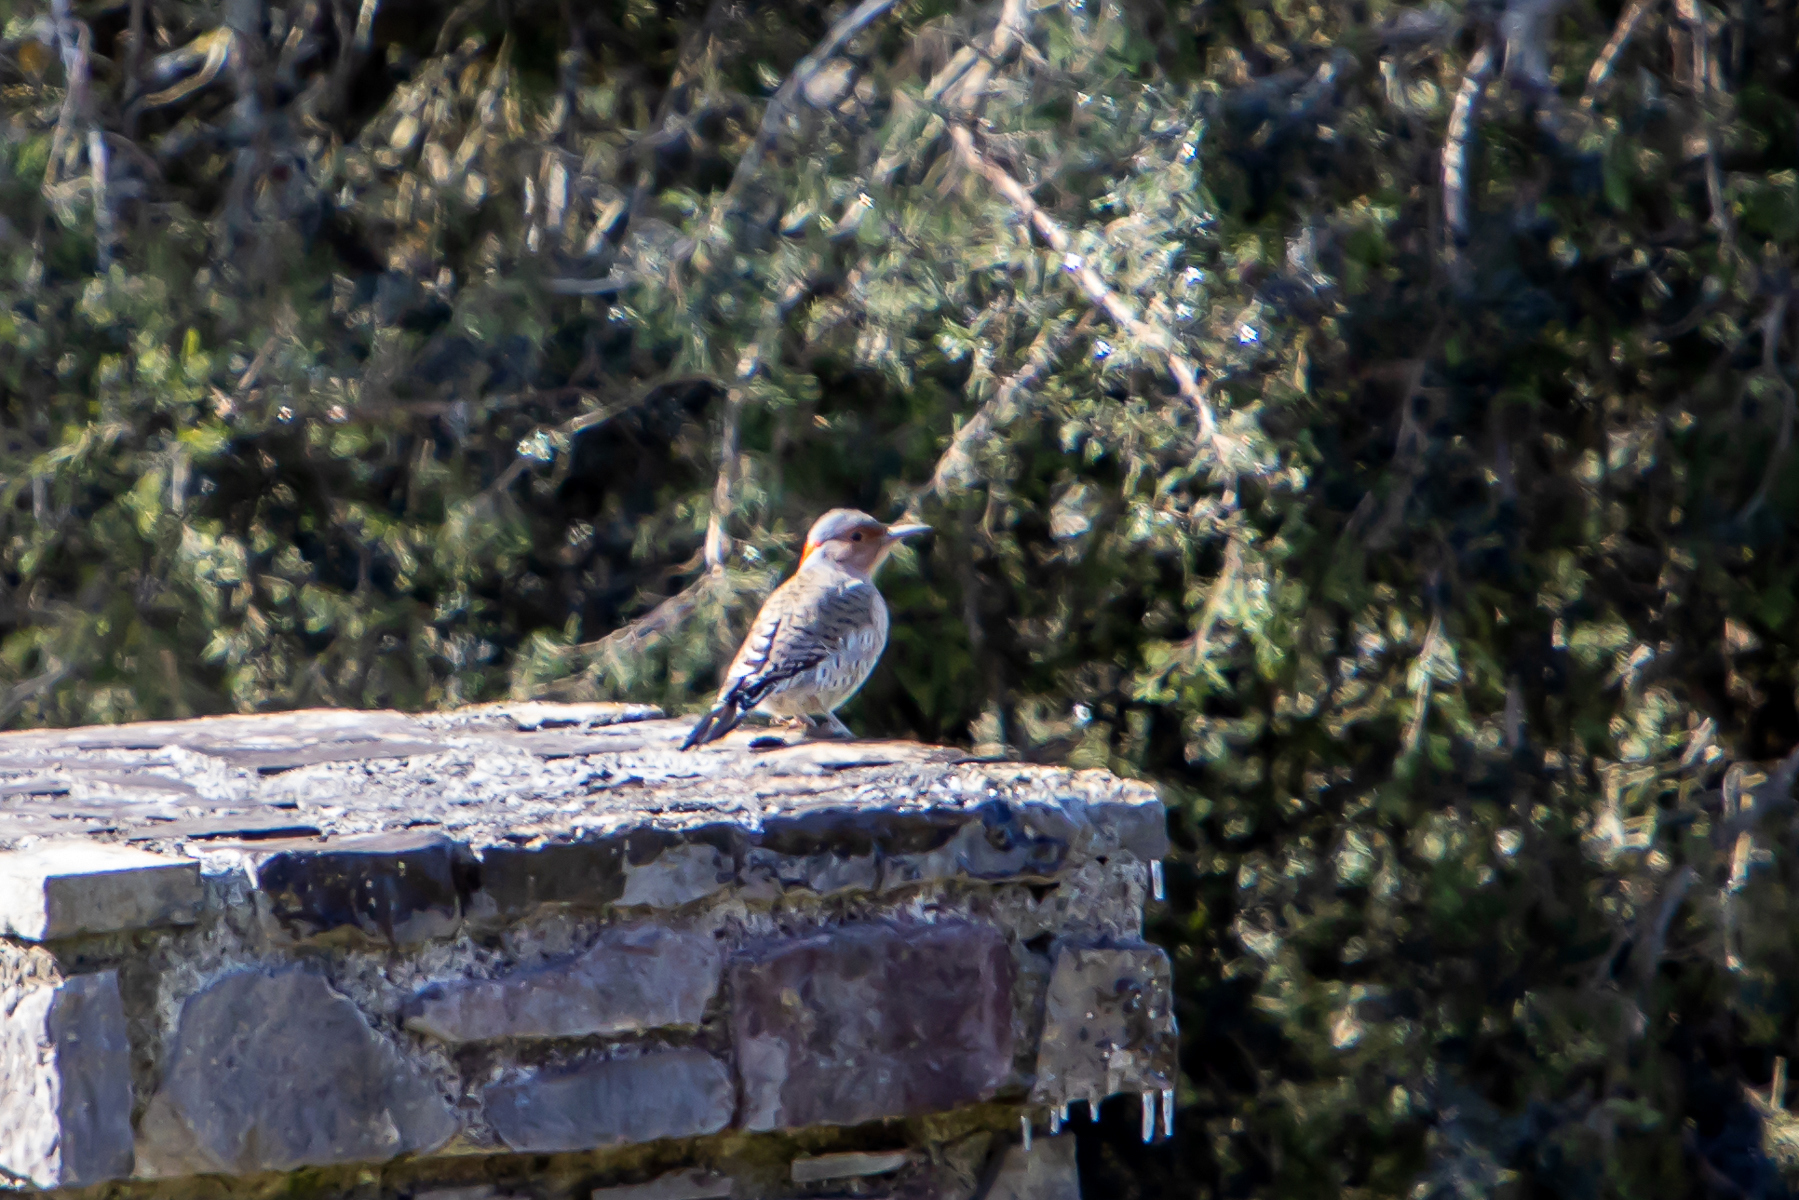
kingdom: Animalia
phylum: Chordata
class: Aves
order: Piciformes
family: Picidae
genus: Colaptes
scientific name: Colaptes auratus
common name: Northern flicker
